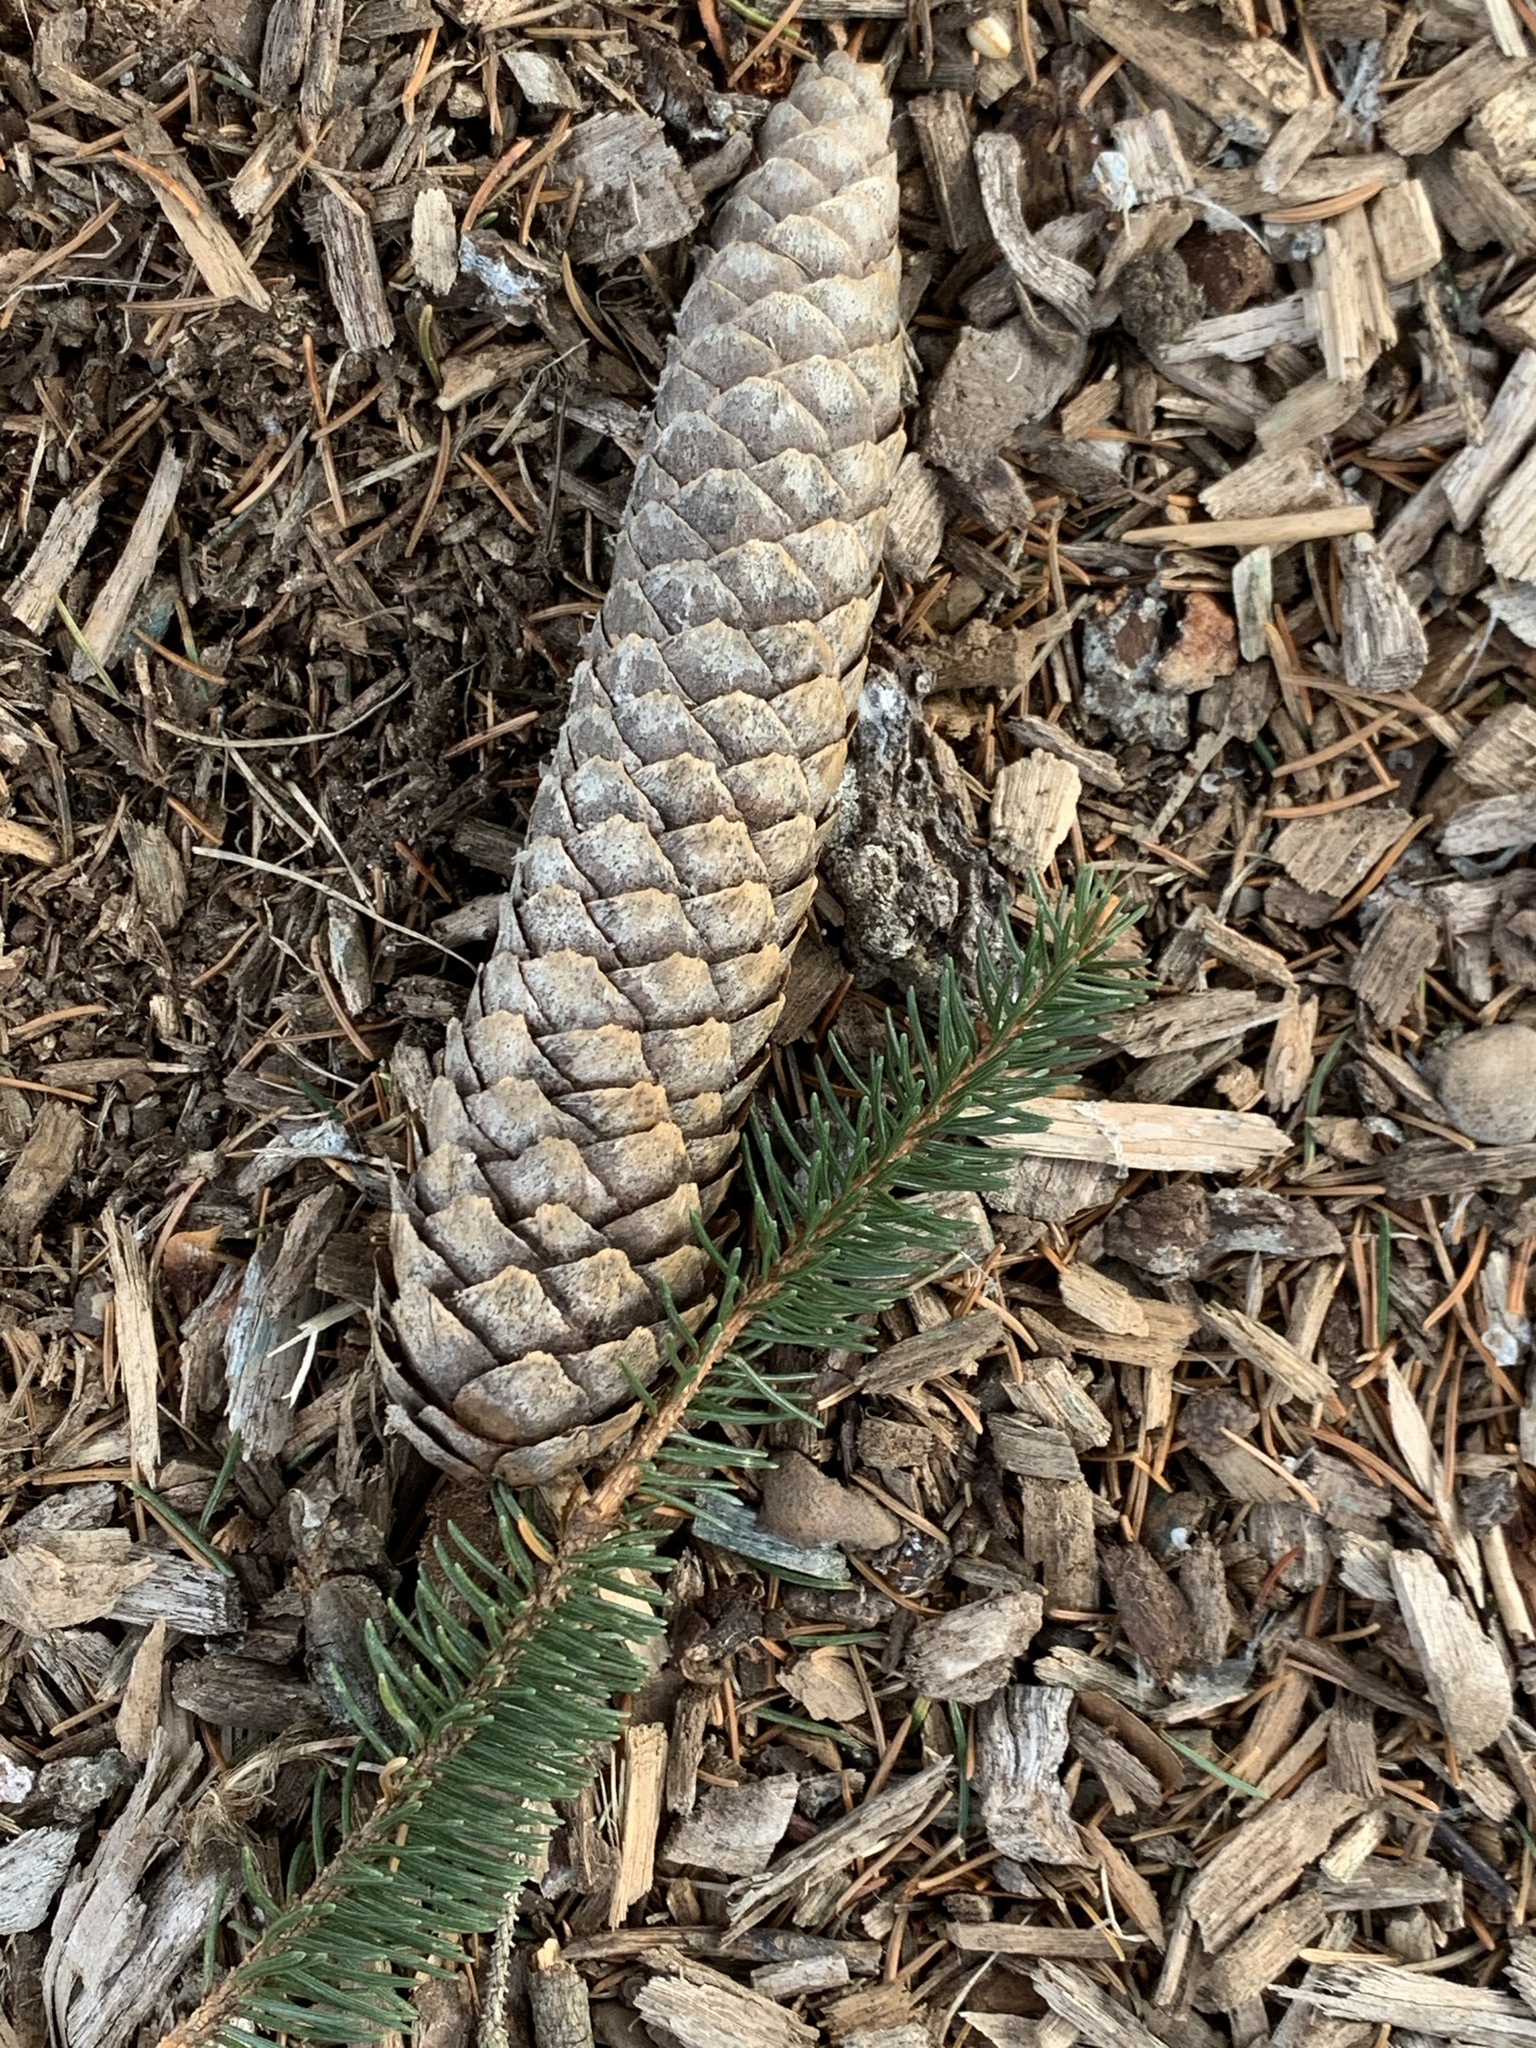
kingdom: Plantae
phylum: Tracheophyta
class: Pinopsida
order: Pinales
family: Pinaceae
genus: Picea
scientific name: Picea abies
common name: Norway spruce
